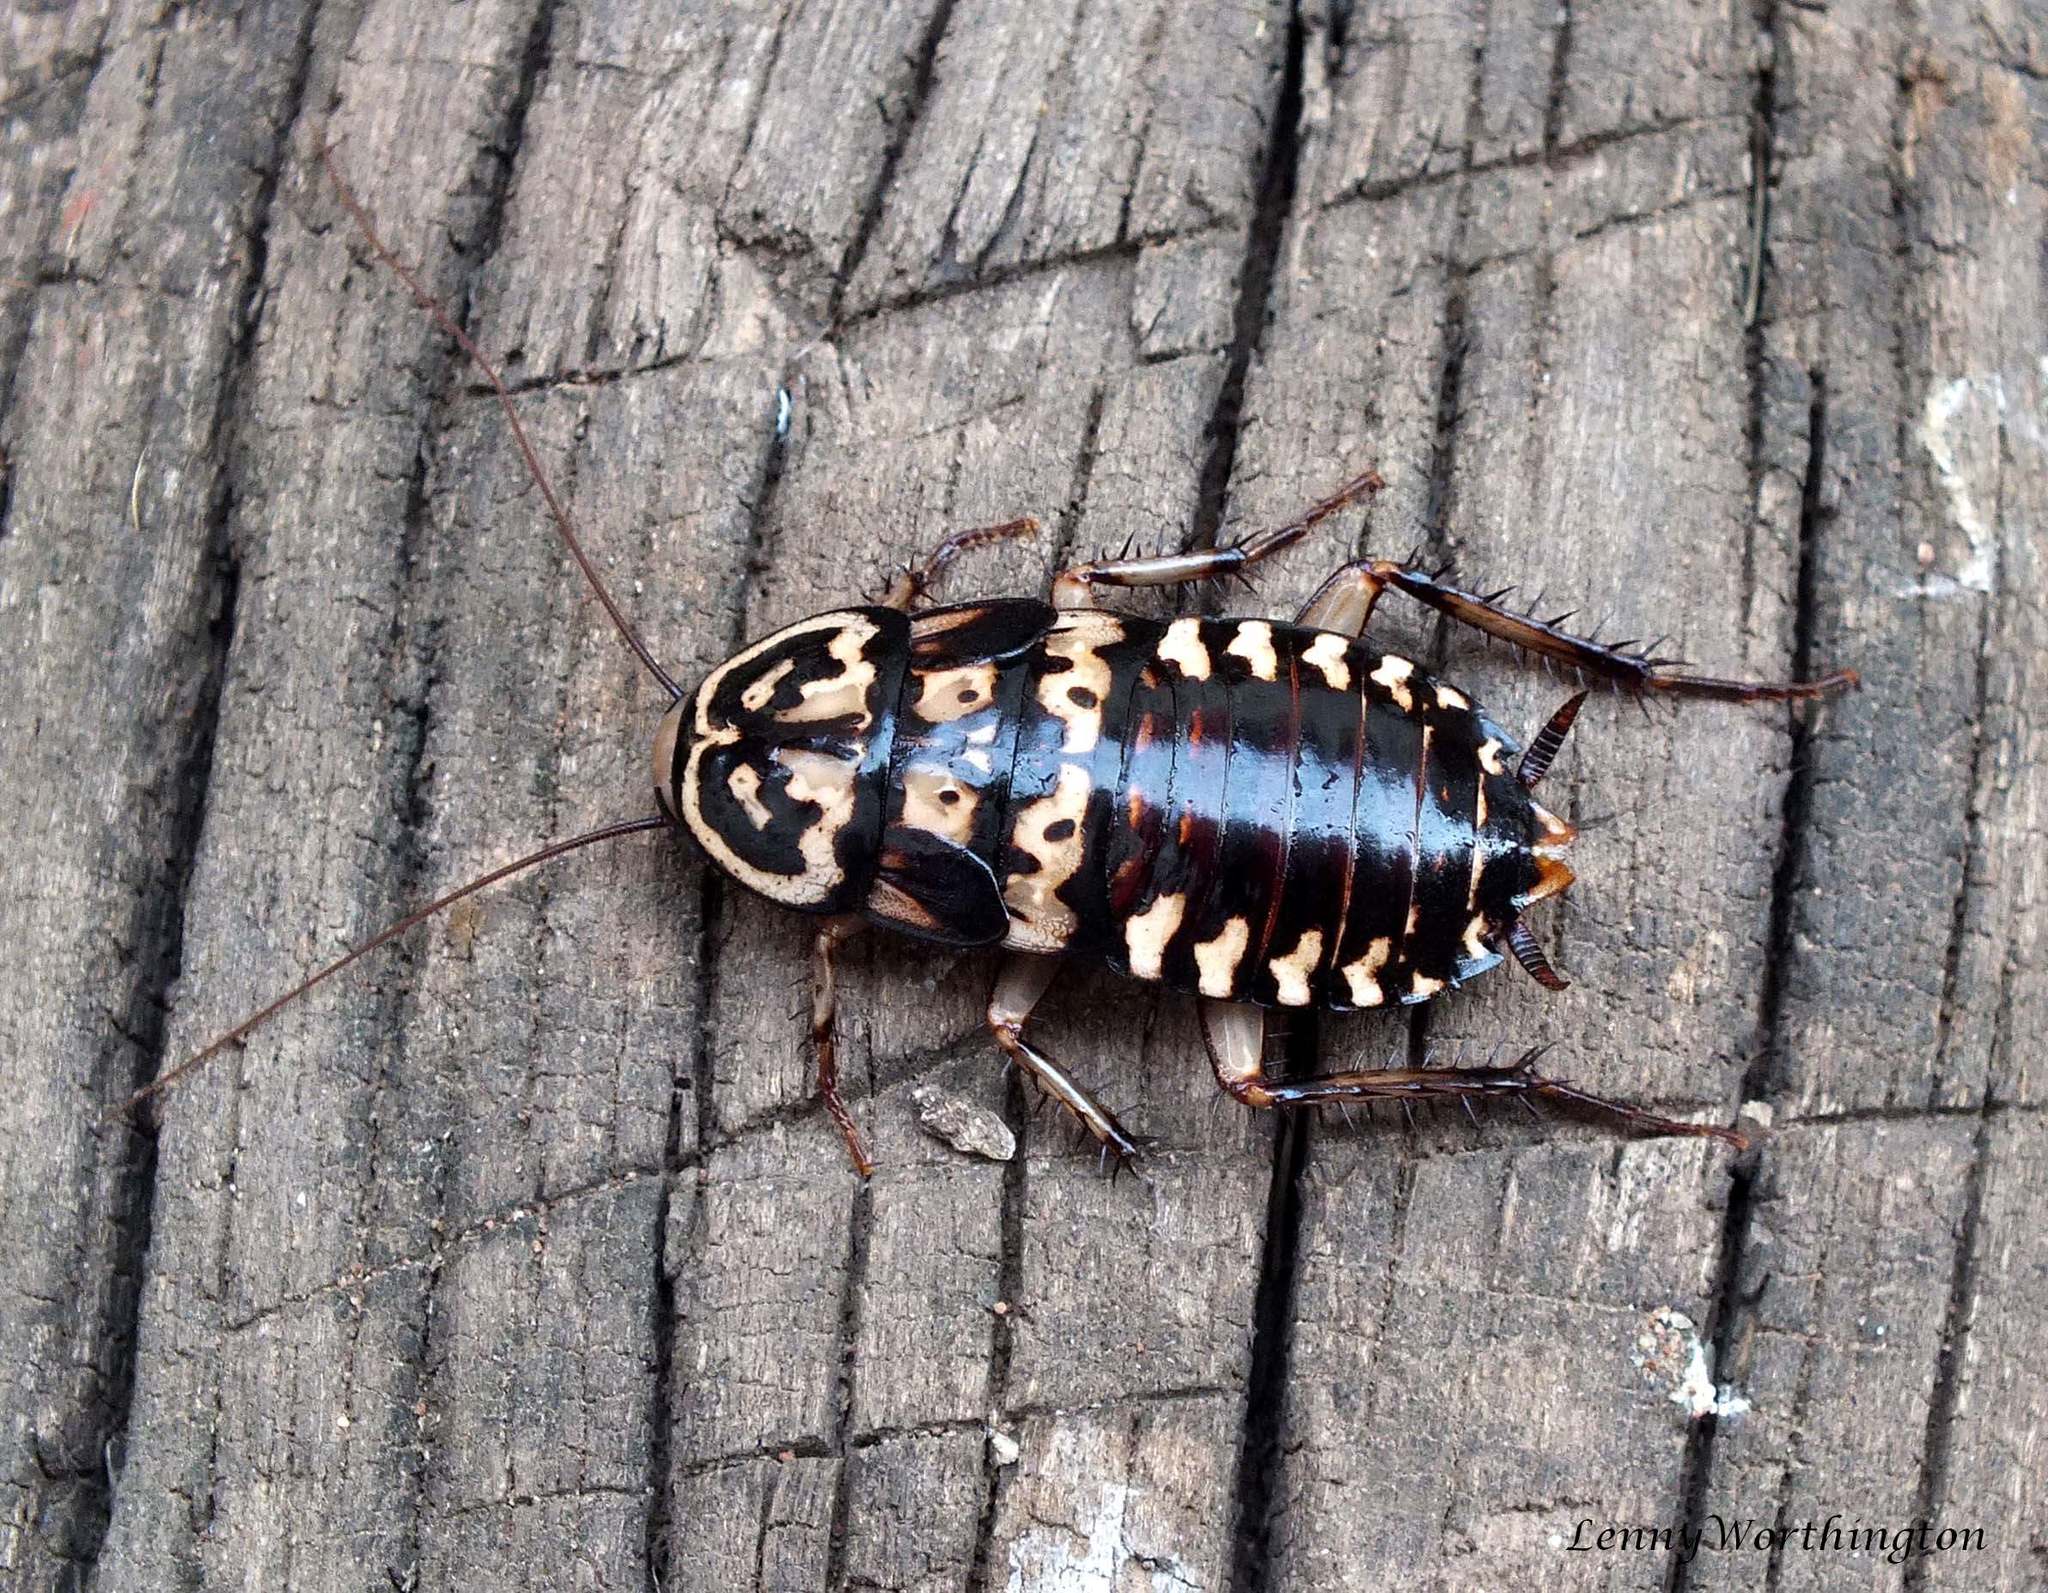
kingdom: Animalia
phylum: Arthropoda
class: Insecta
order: Blattodea
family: Blattidae
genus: Neostylopyga
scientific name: Neostylopyga rhombifolia
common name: Harlequin cockroach
